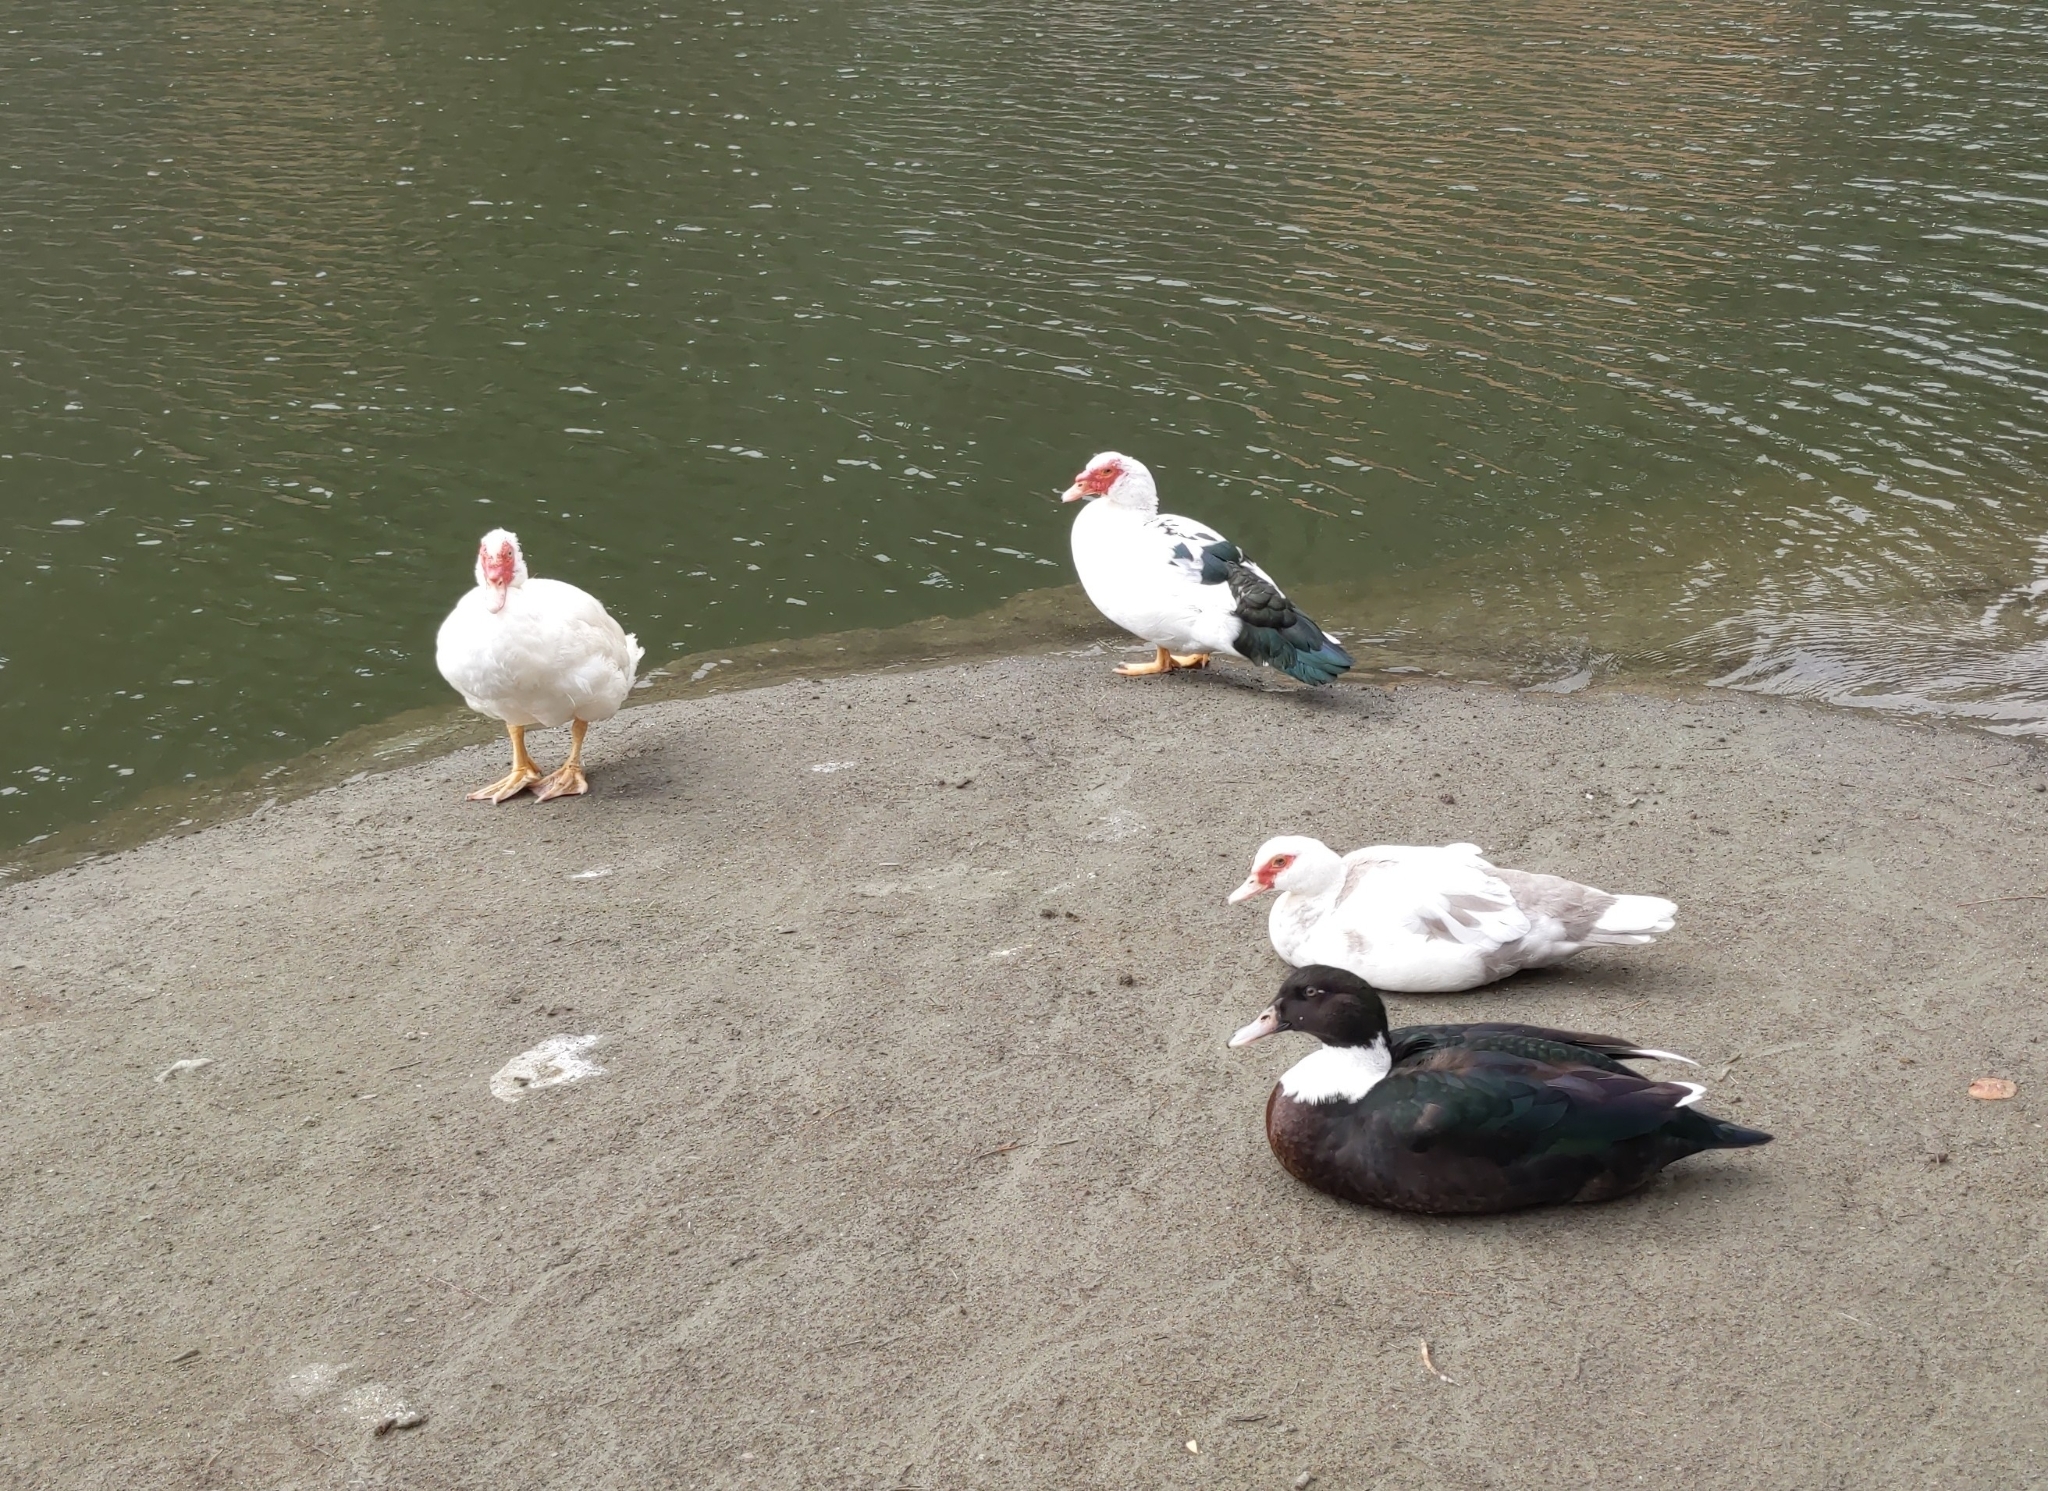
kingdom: Animalia
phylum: Chordata
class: Aves
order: Anseriformes
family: Anatidae
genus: Cairina
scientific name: Cairina moschata
